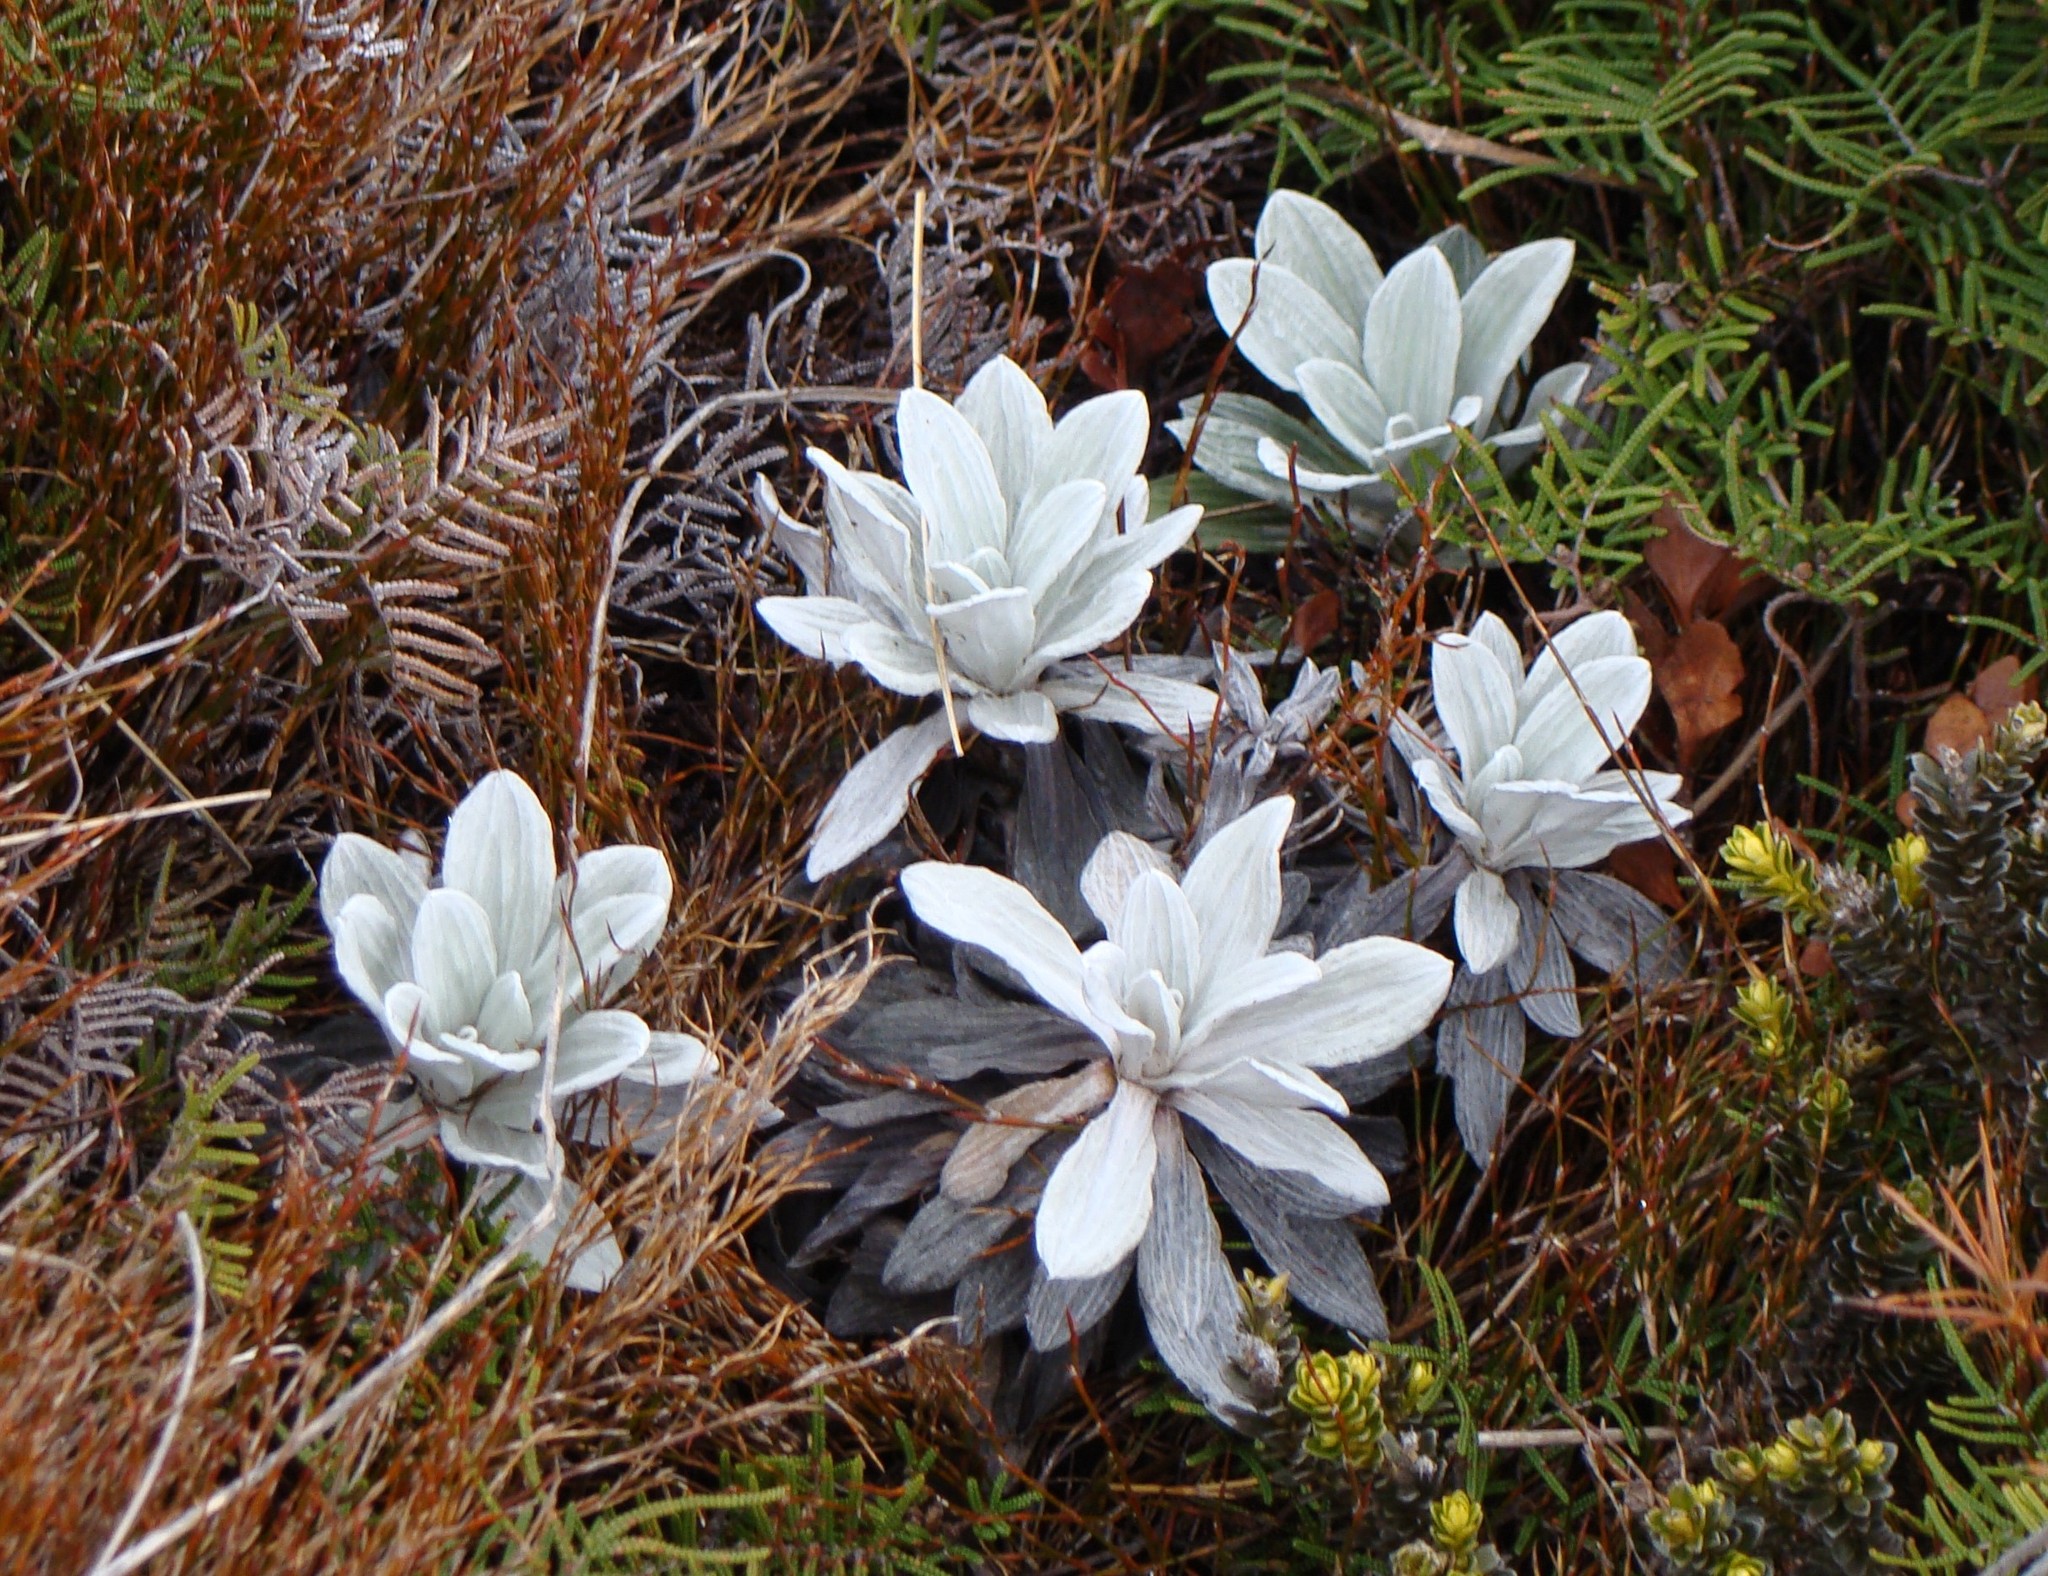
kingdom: Plantae
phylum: Tracheophyta
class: Magnoliopsida
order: Asterales
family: Asteraceae
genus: Celmisia
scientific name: Celmisia incana
